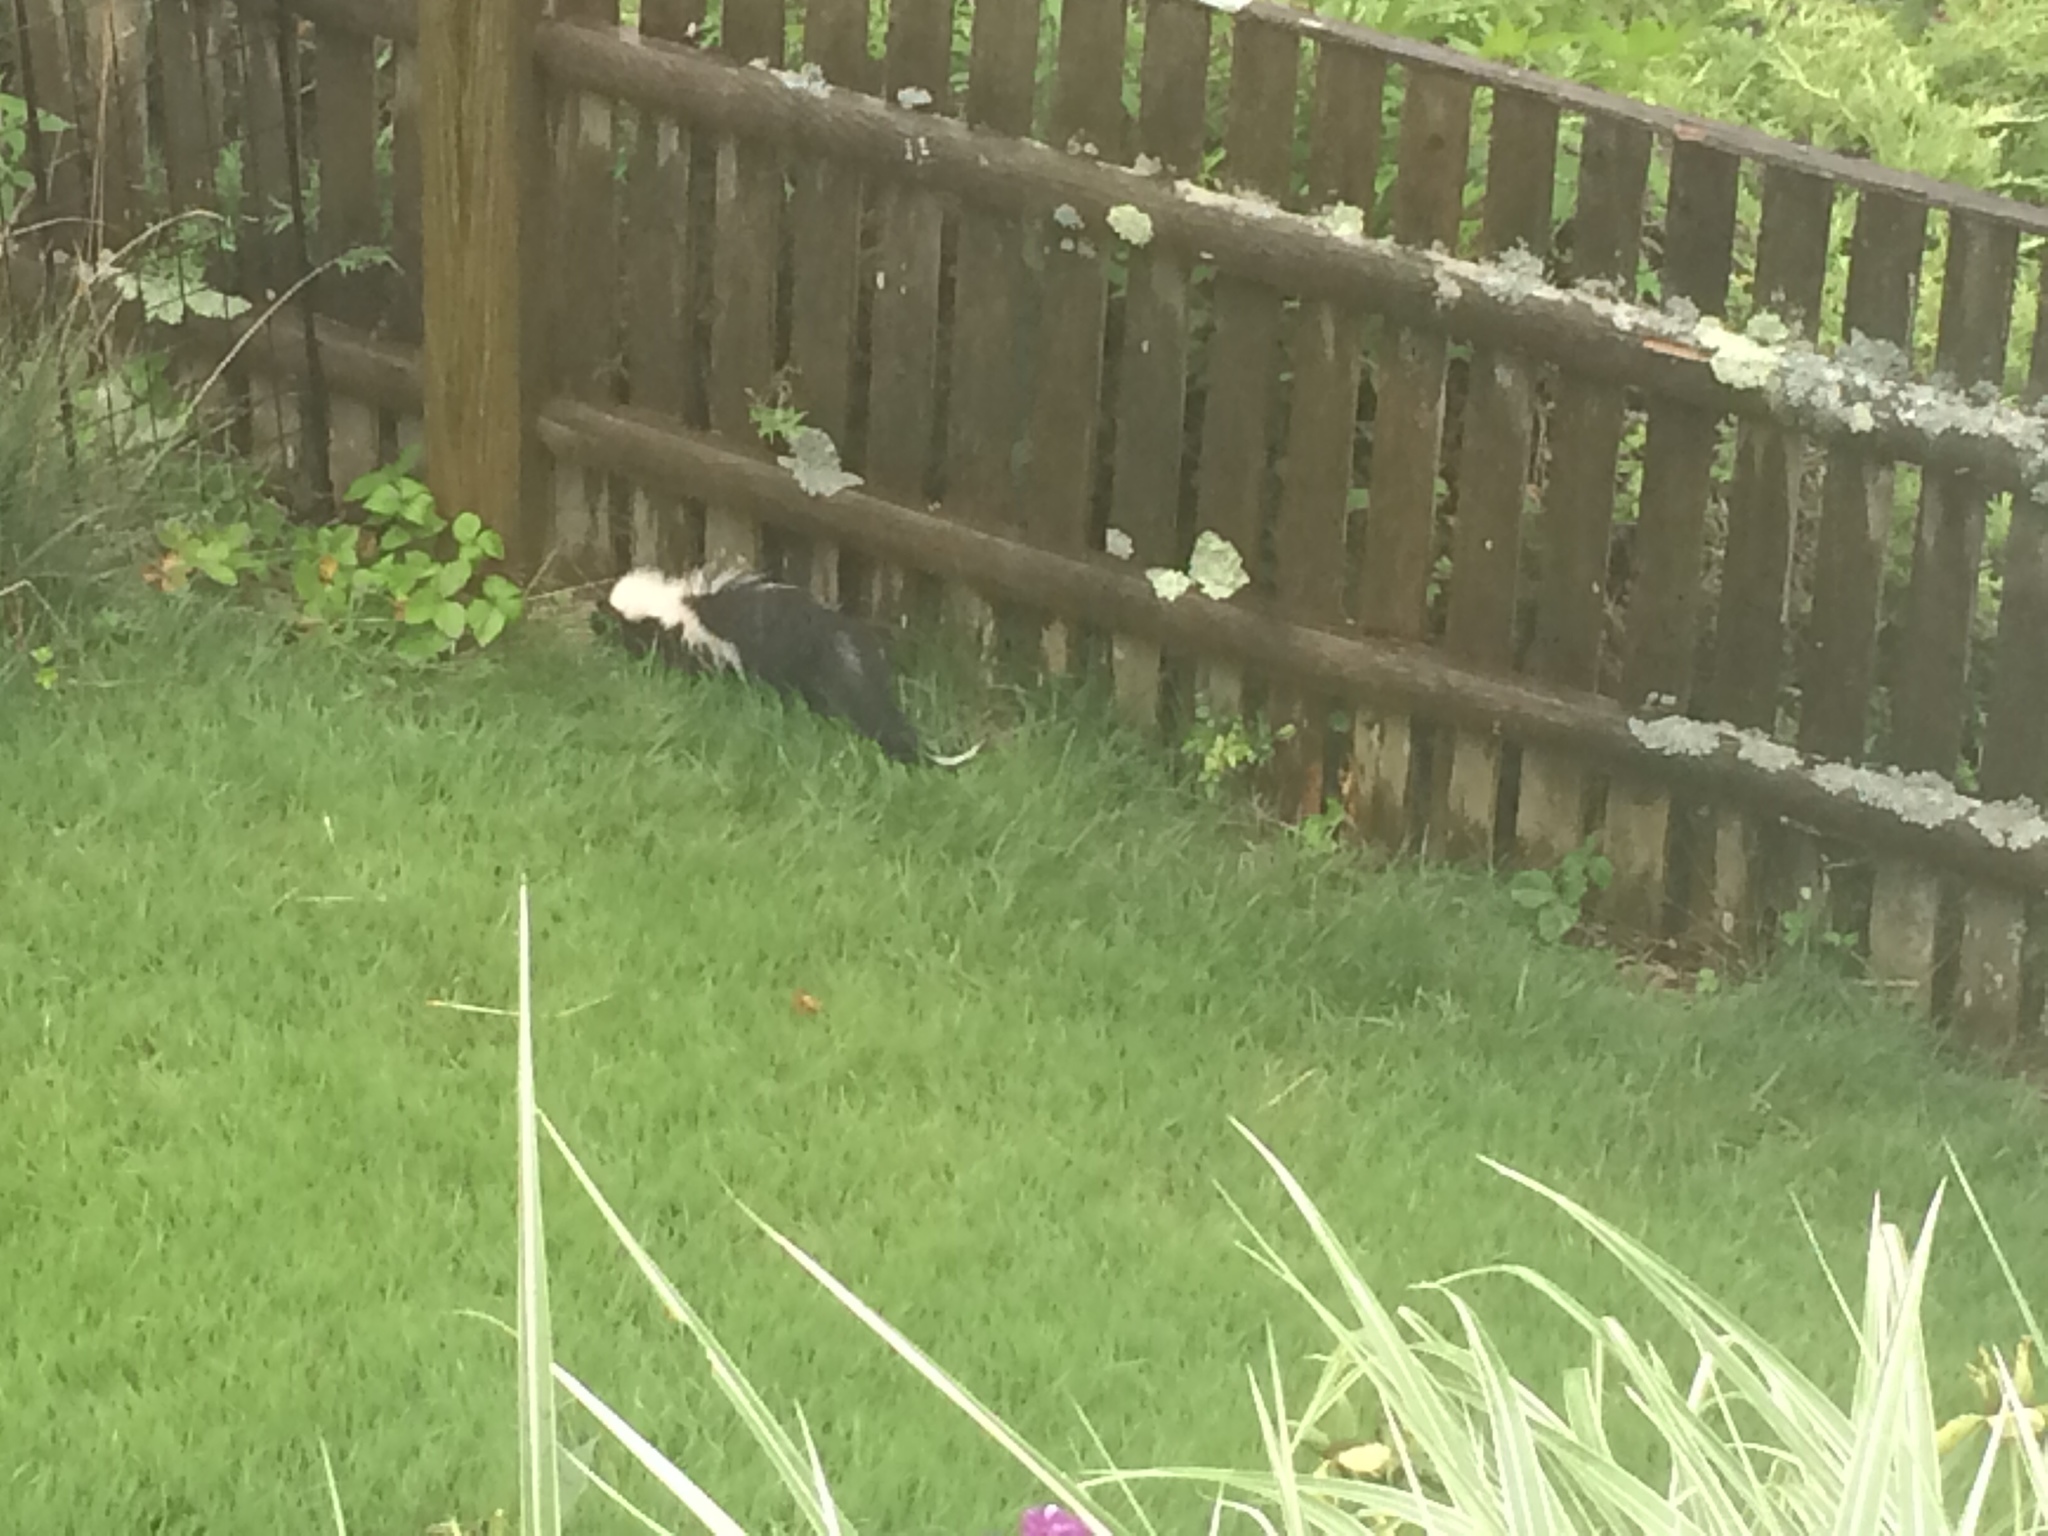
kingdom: Animalia
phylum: Chordata
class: Mammalia
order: Carnivora
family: Mephitidae
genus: Mephitis
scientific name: Mephitis mephitis
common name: Striped skunk
